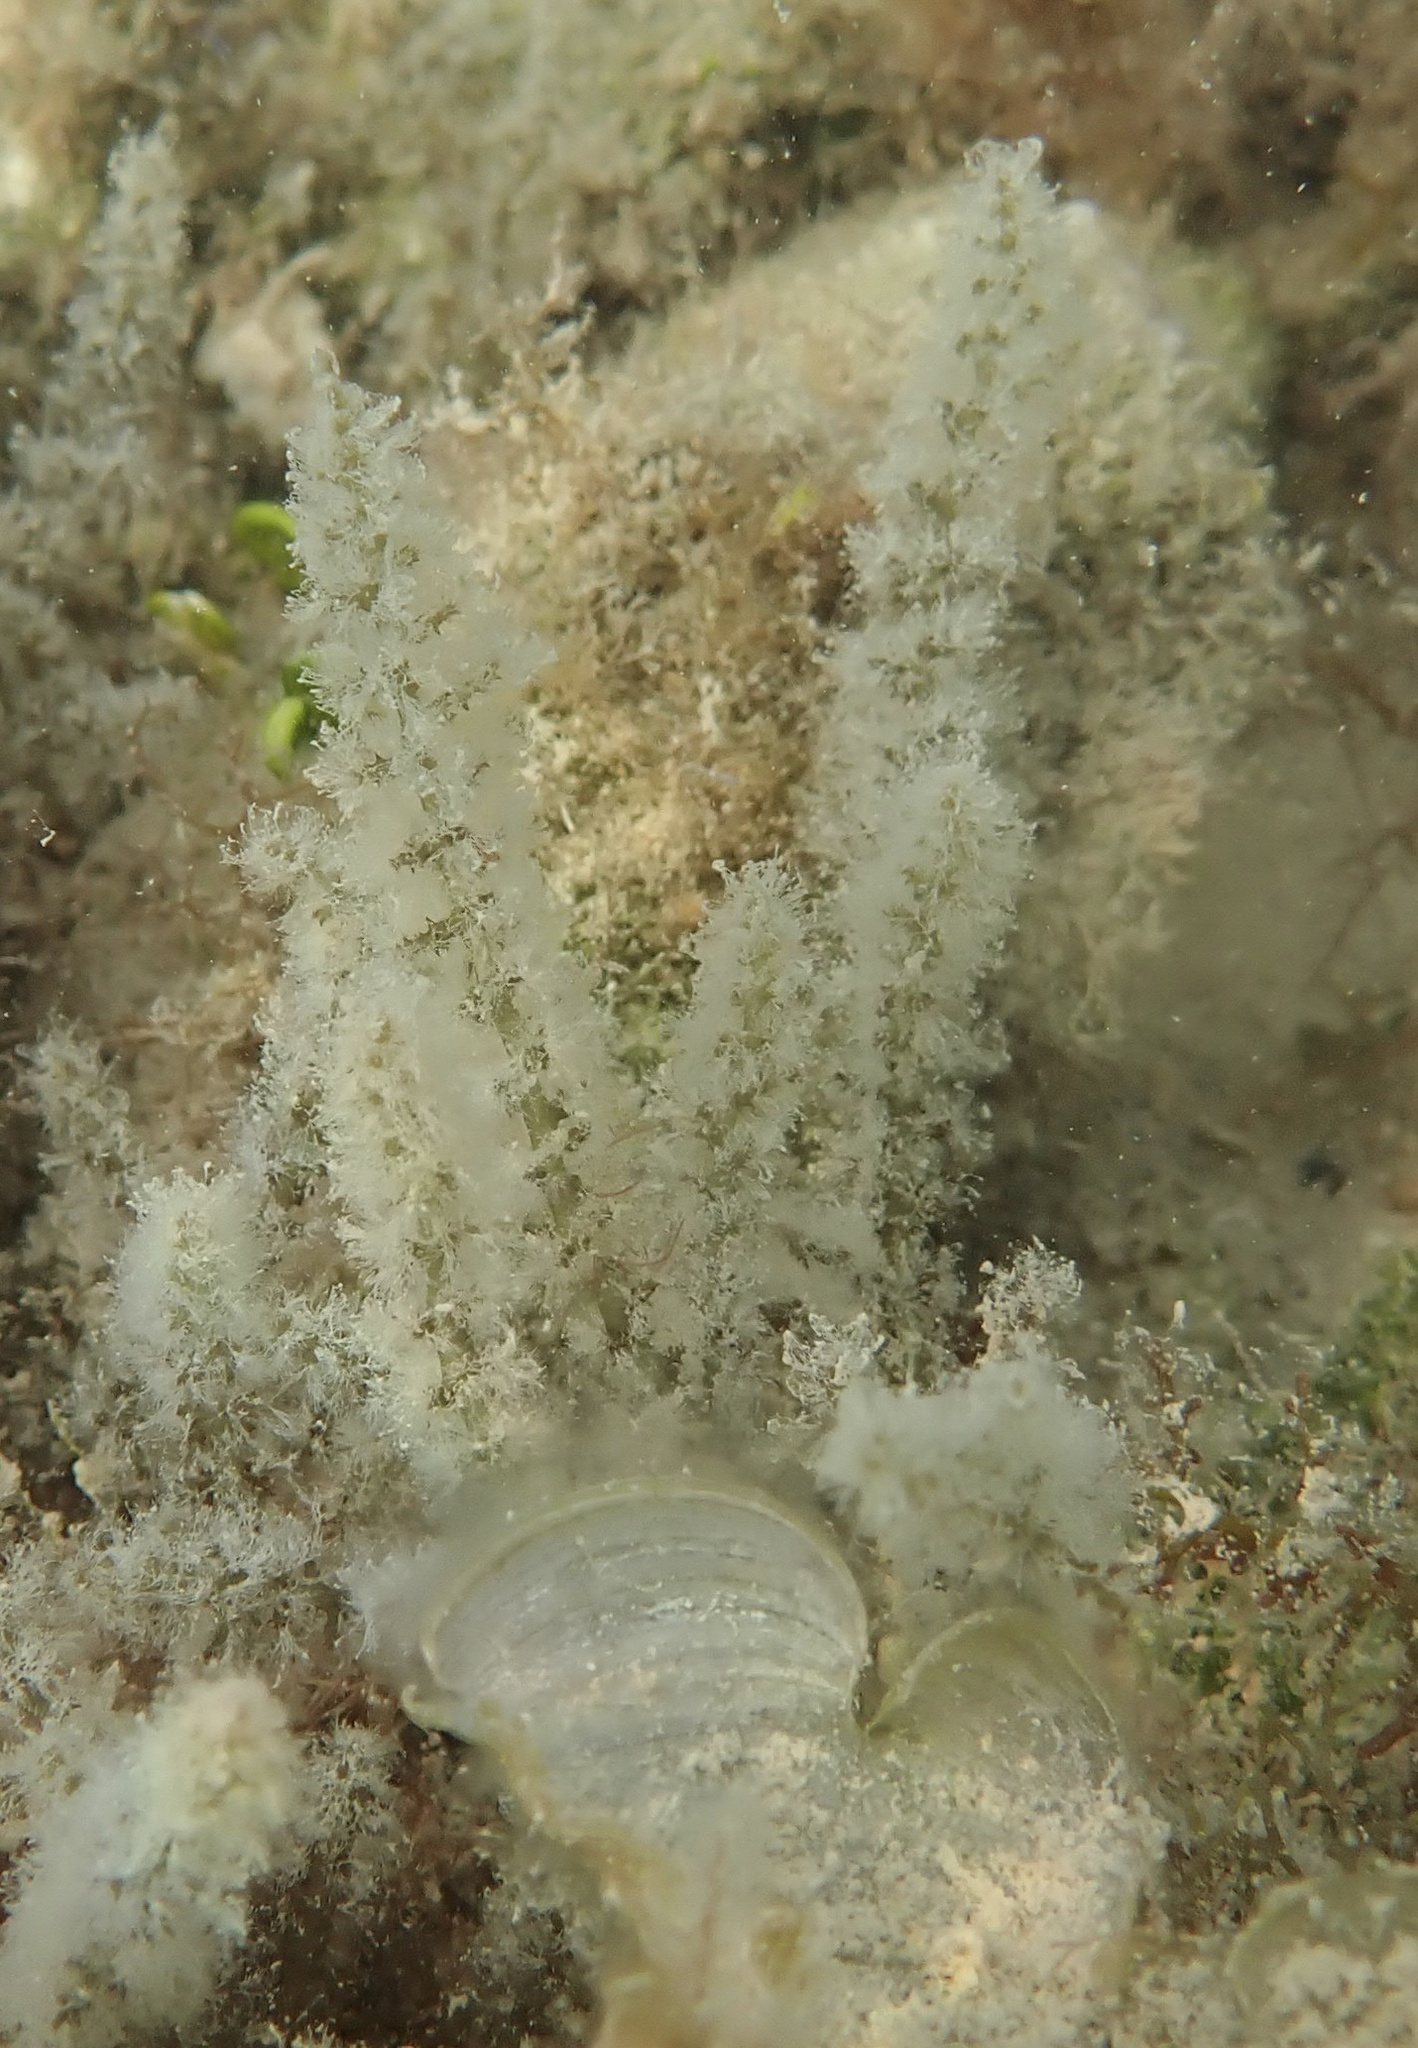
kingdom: Plantae
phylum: Rhodophyta
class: Florideophyceae
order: Ceramiales
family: Rhodomelaceae
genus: Acanthophora
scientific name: Acanthophora spicifera
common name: Red algae
